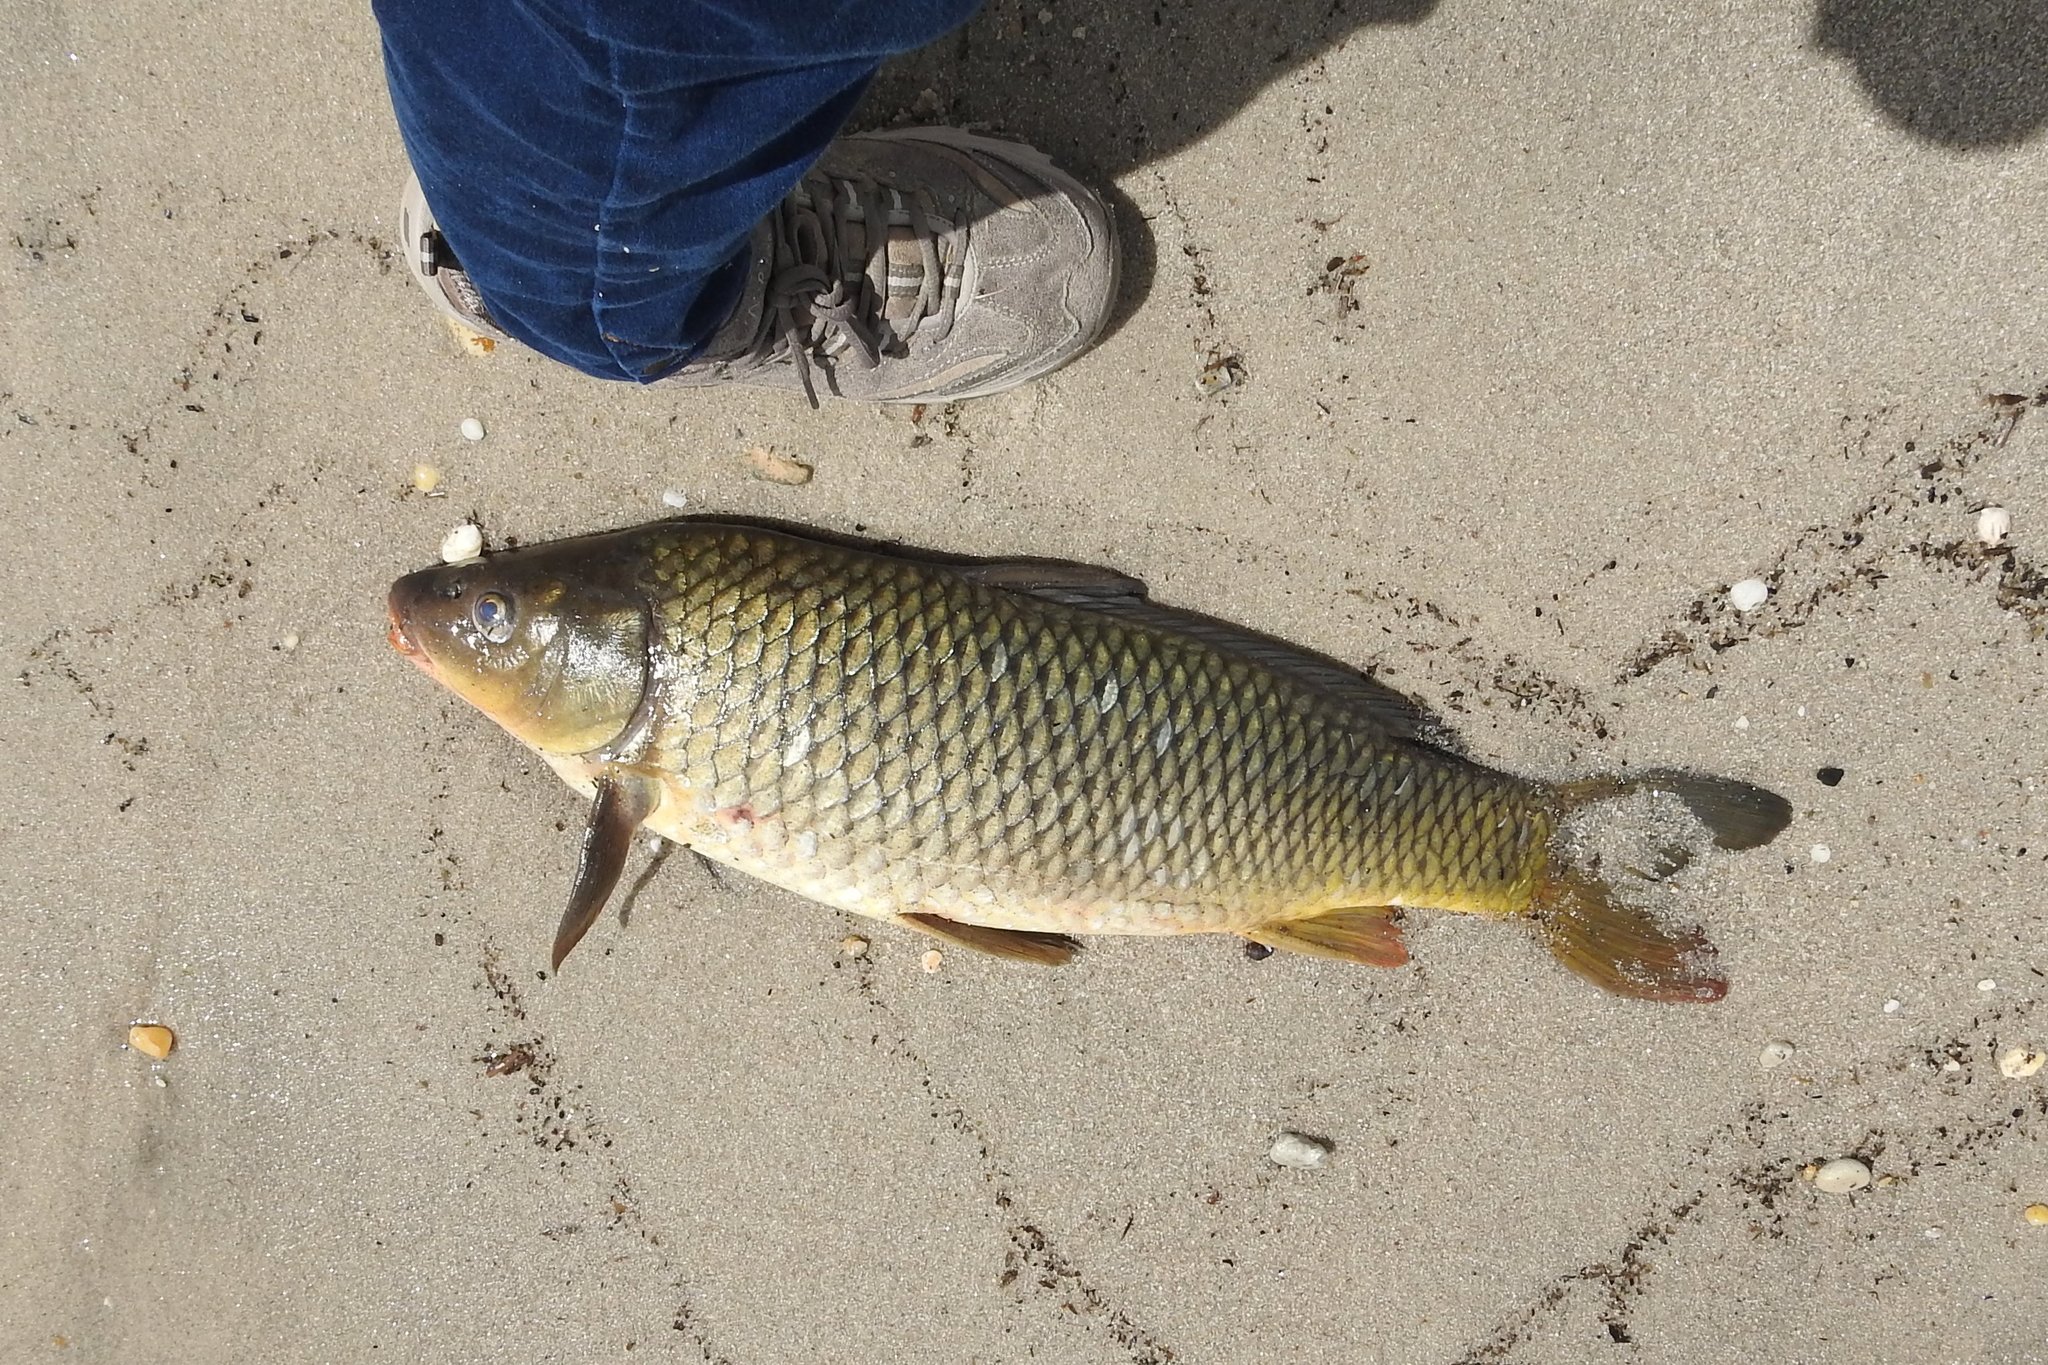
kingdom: Animalia
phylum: Chordata
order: Cypriniformes
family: Cyprinidae
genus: Cyprinus
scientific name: Cyprinus carpio
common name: Common carp
